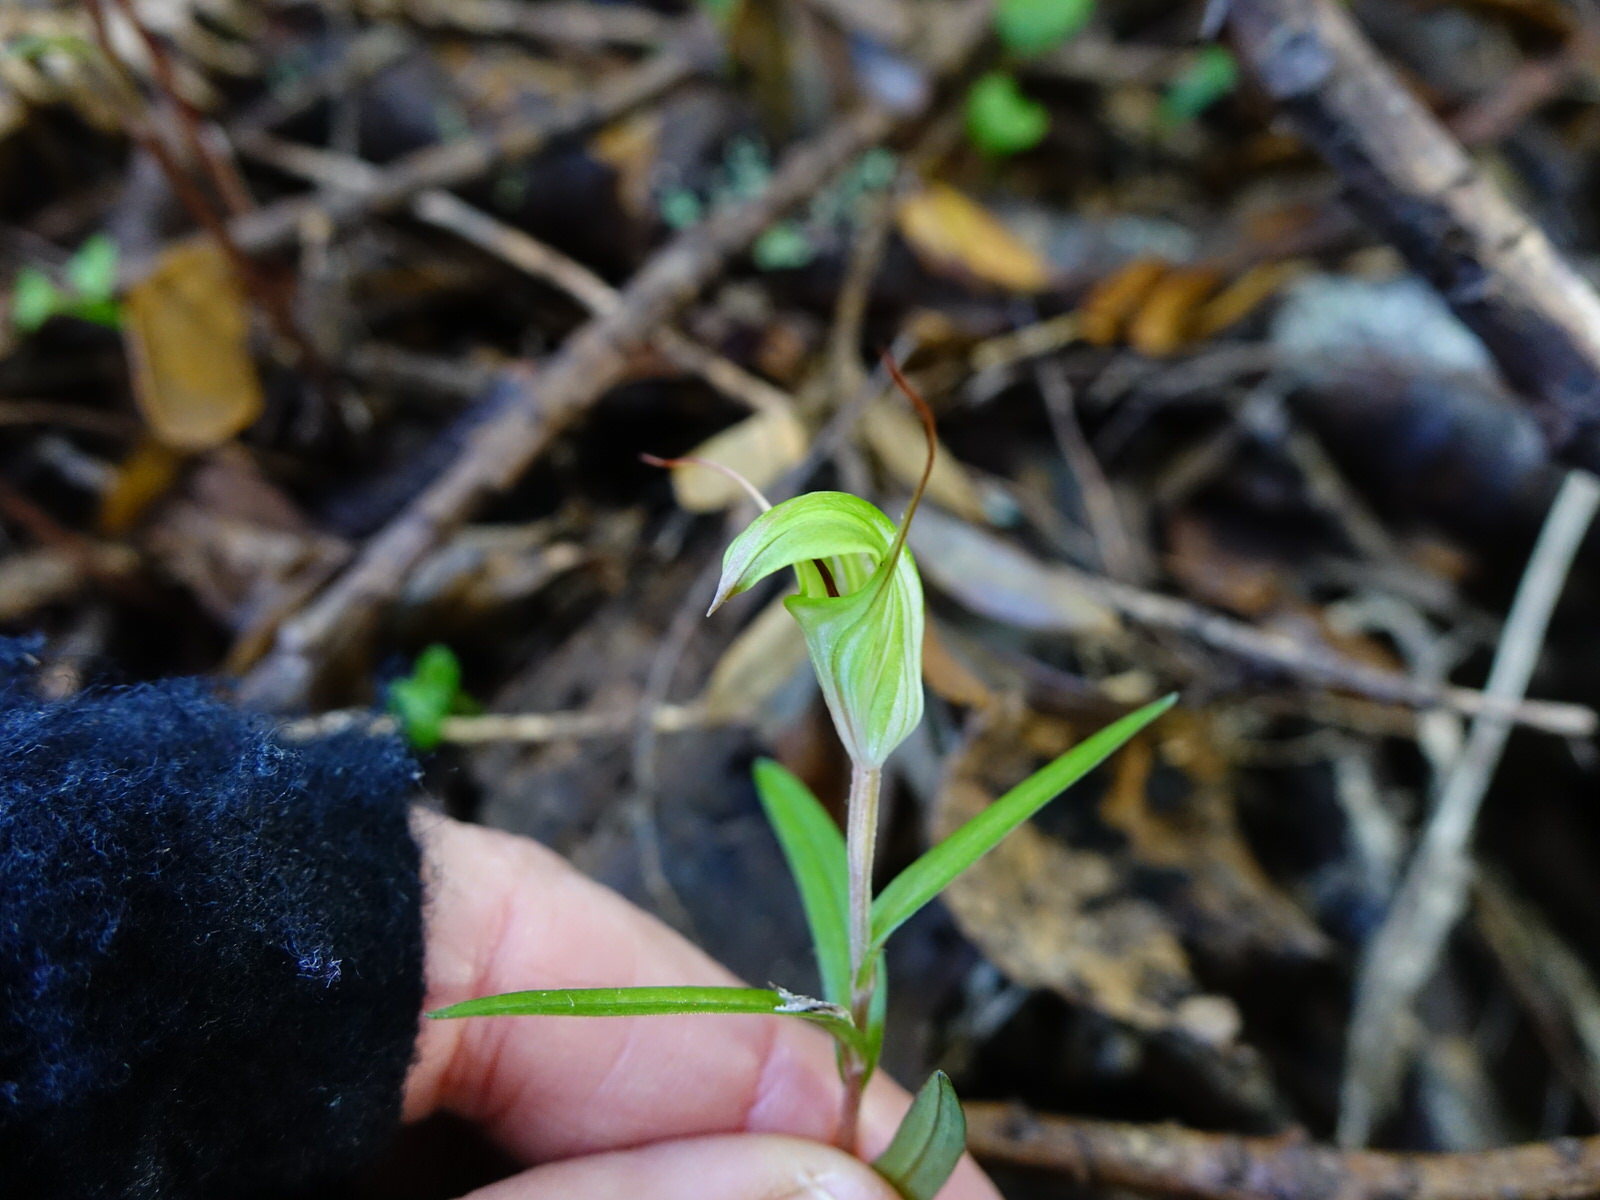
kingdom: Plantae
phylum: Tracheophyta
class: Liliopsida
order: Asparagales
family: Orchidaceae
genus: Pterostylis
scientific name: Pterostylis brumalis
